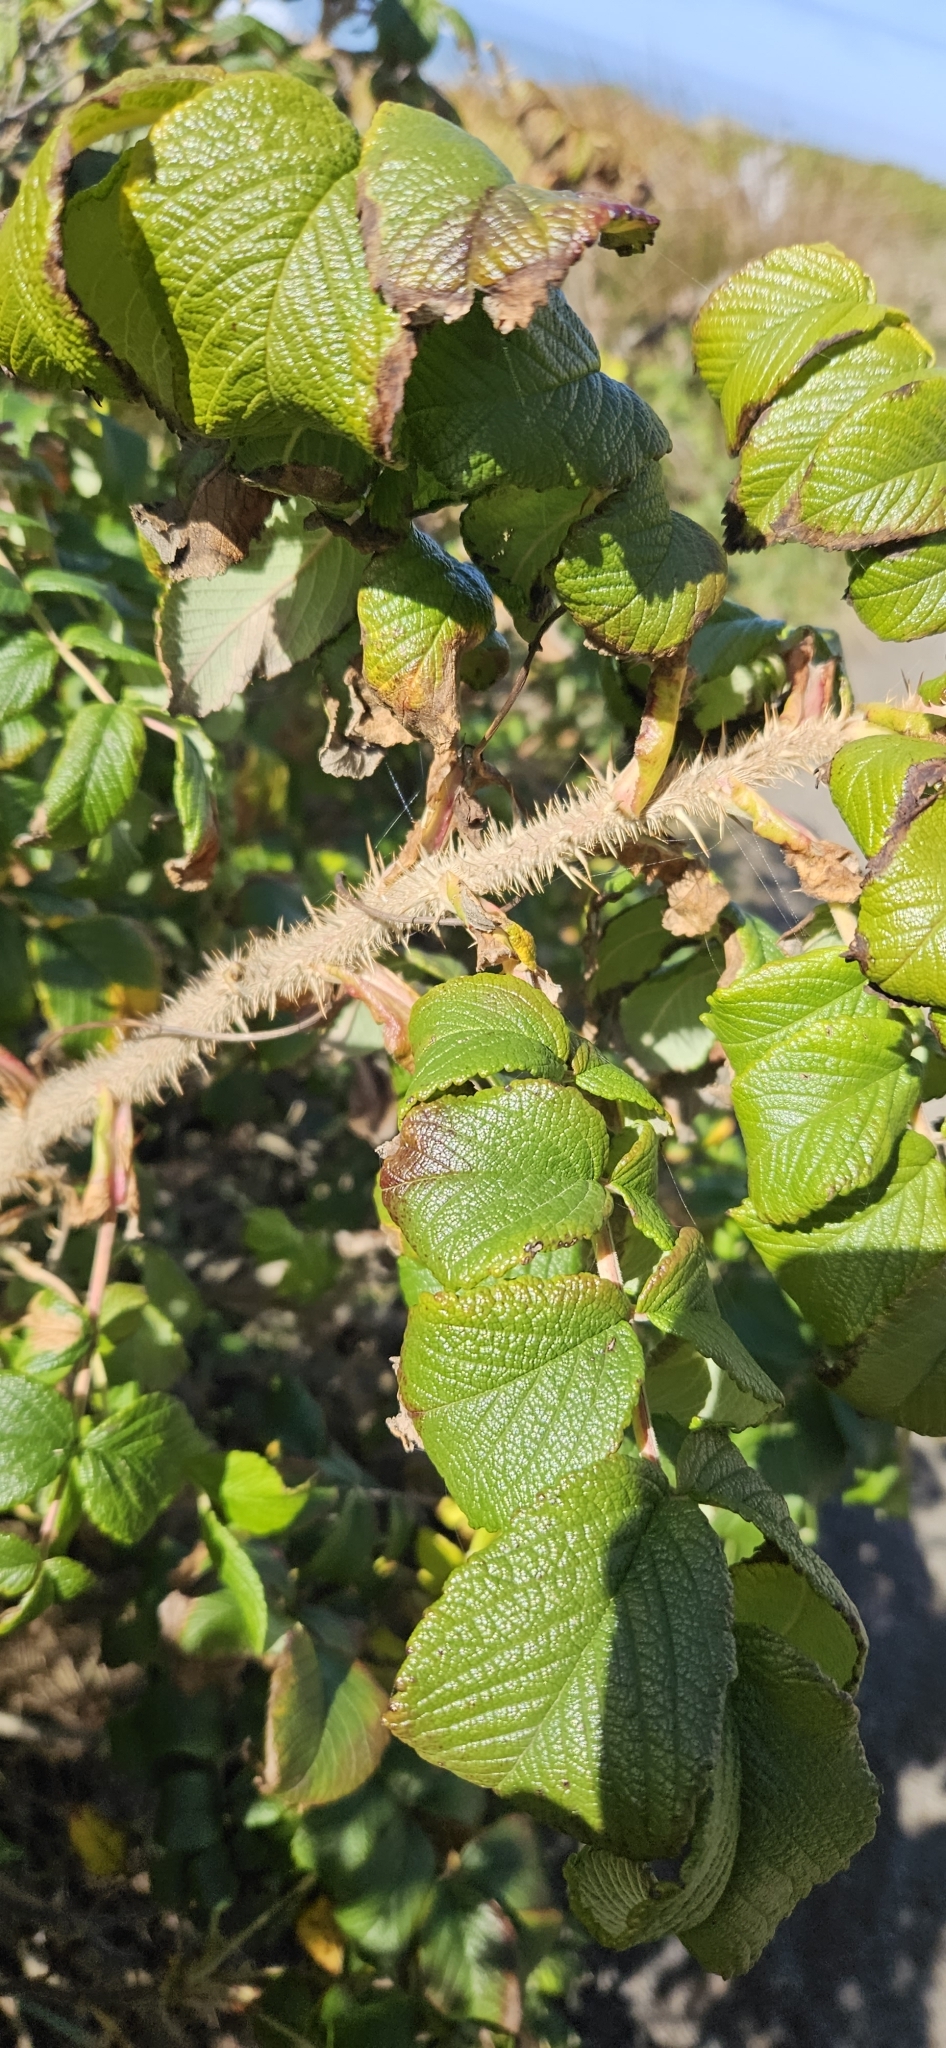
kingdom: Plantae
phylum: Tracheophyta
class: Magnoliopsida
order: Rosales
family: Rosaceae
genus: Rosa
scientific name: Rosa rugosa
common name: Japanese rose
